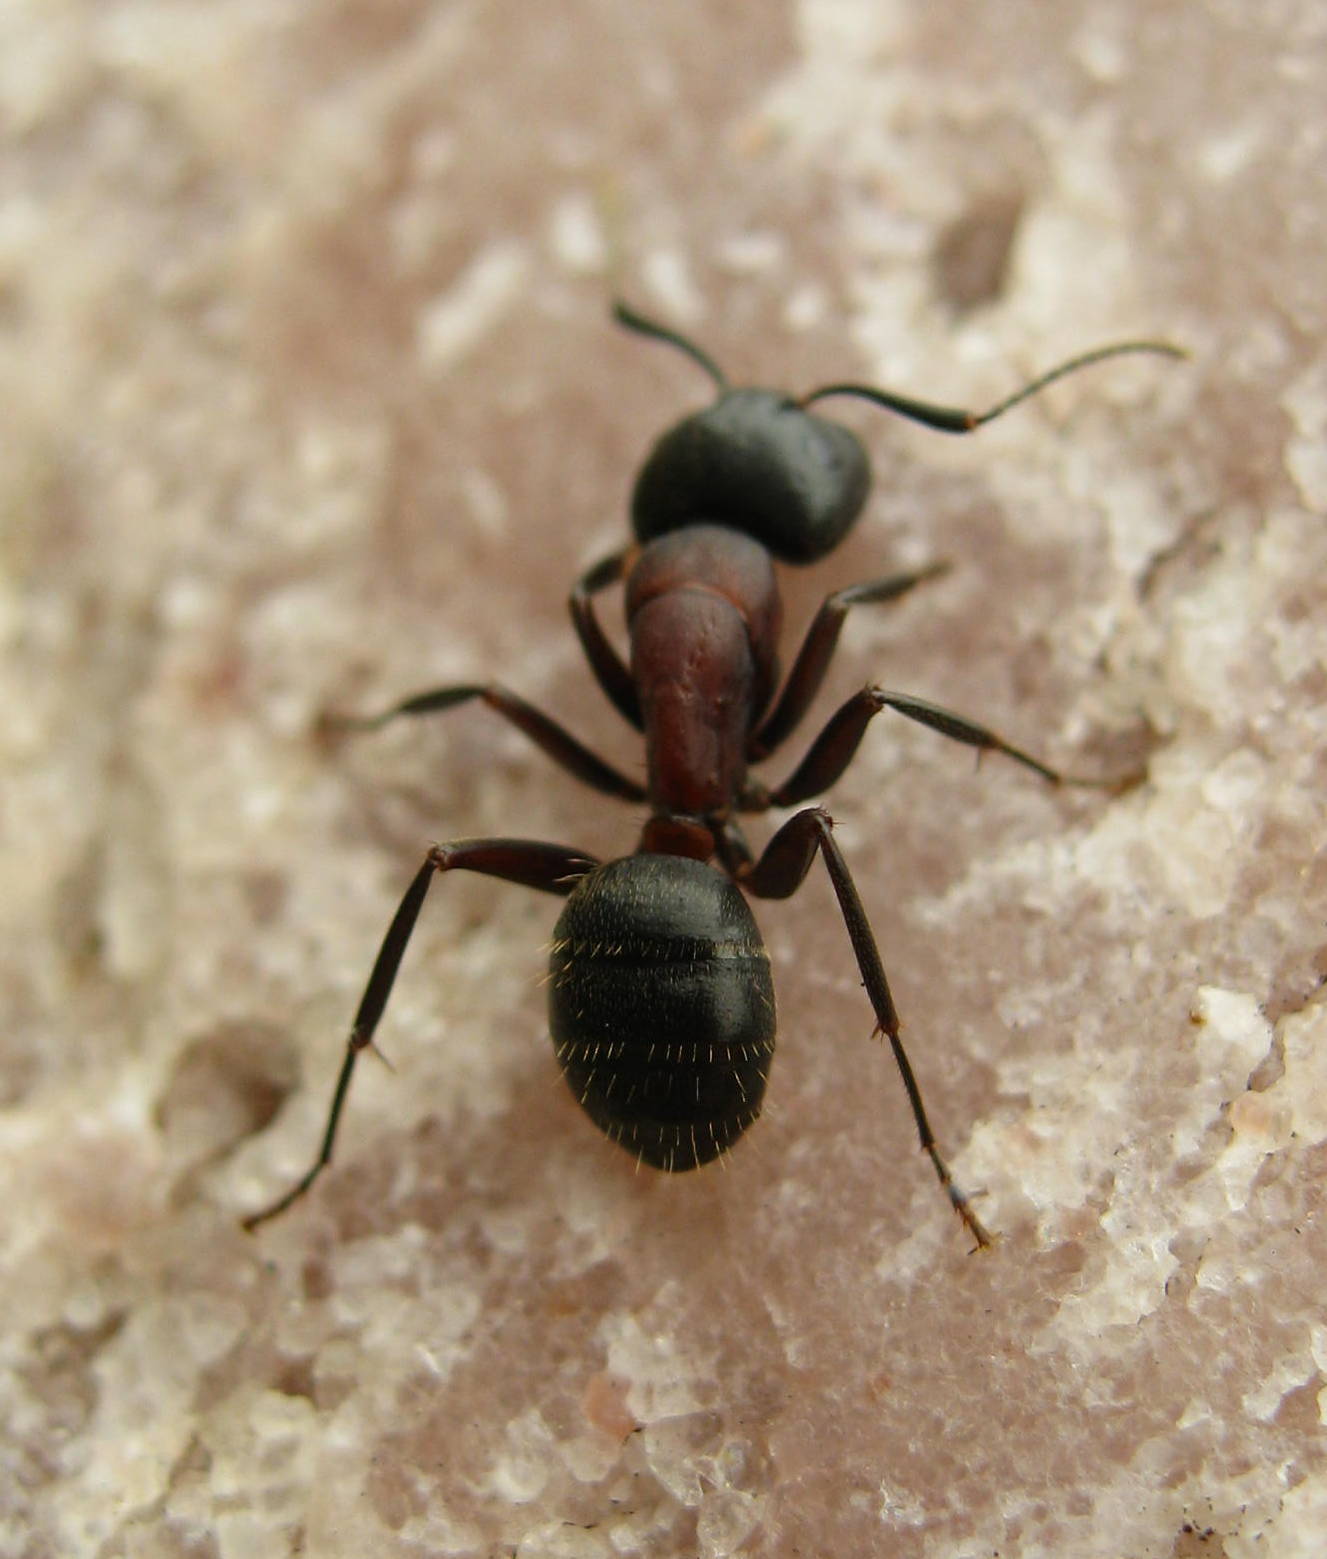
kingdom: Animalia
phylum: Arthropoda
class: Insecta
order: Hymenoptera
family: Formicidae
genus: Camponotus
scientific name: Camponotus novaeboracensis
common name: New york carpenter ant
